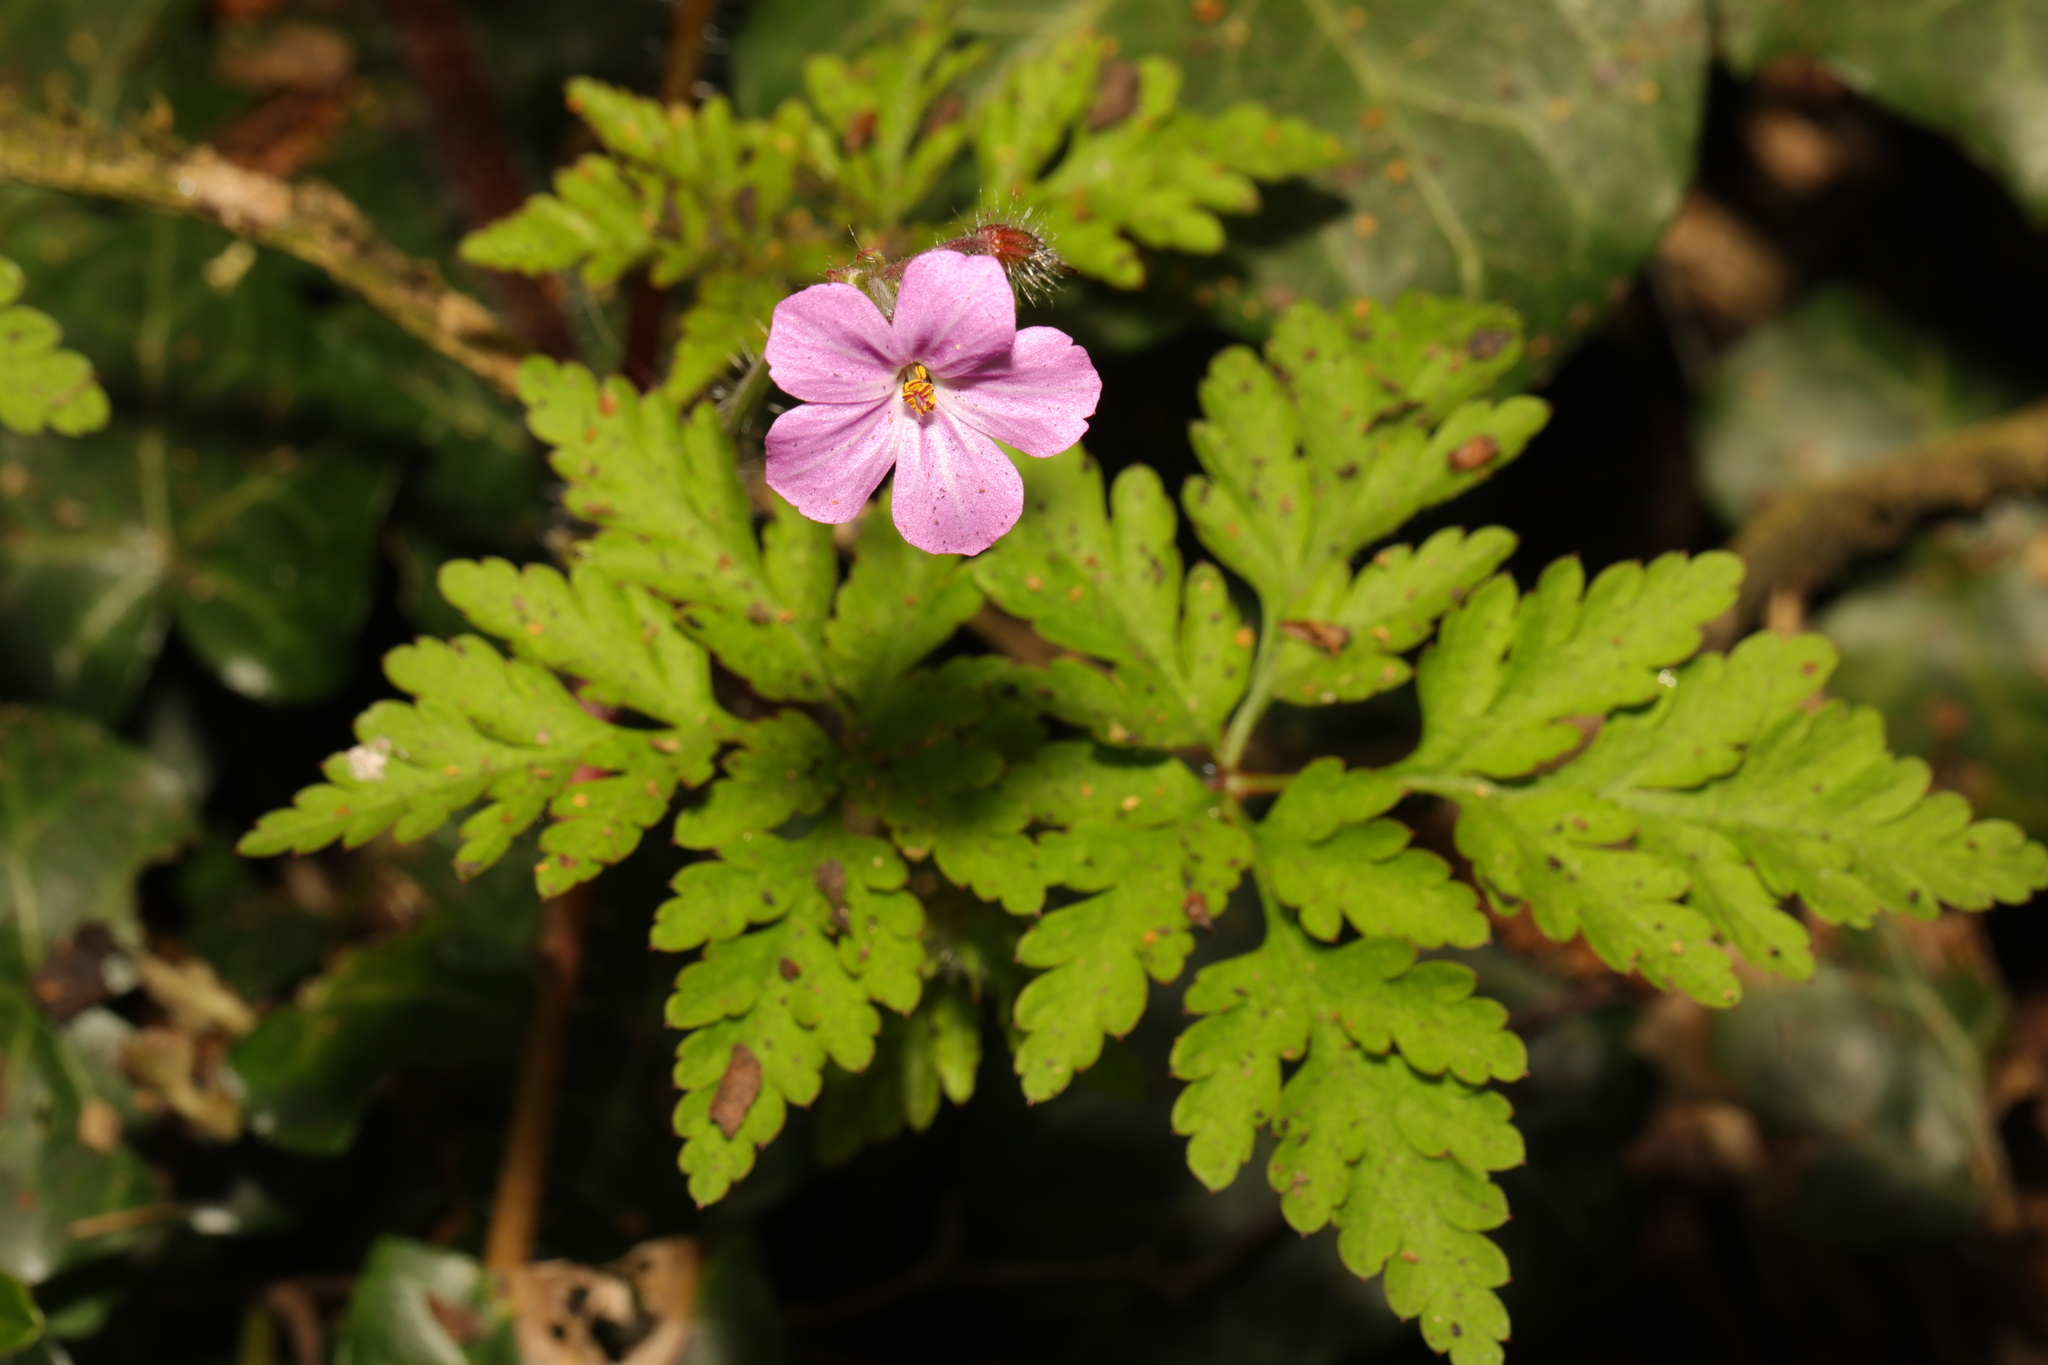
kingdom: Plantae
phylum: Tracheophyta
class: Magnoliopsida
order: Geraniales
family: Geraniaceae
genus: Geranium
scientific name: Geranium robertianum
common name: Herb-robert
